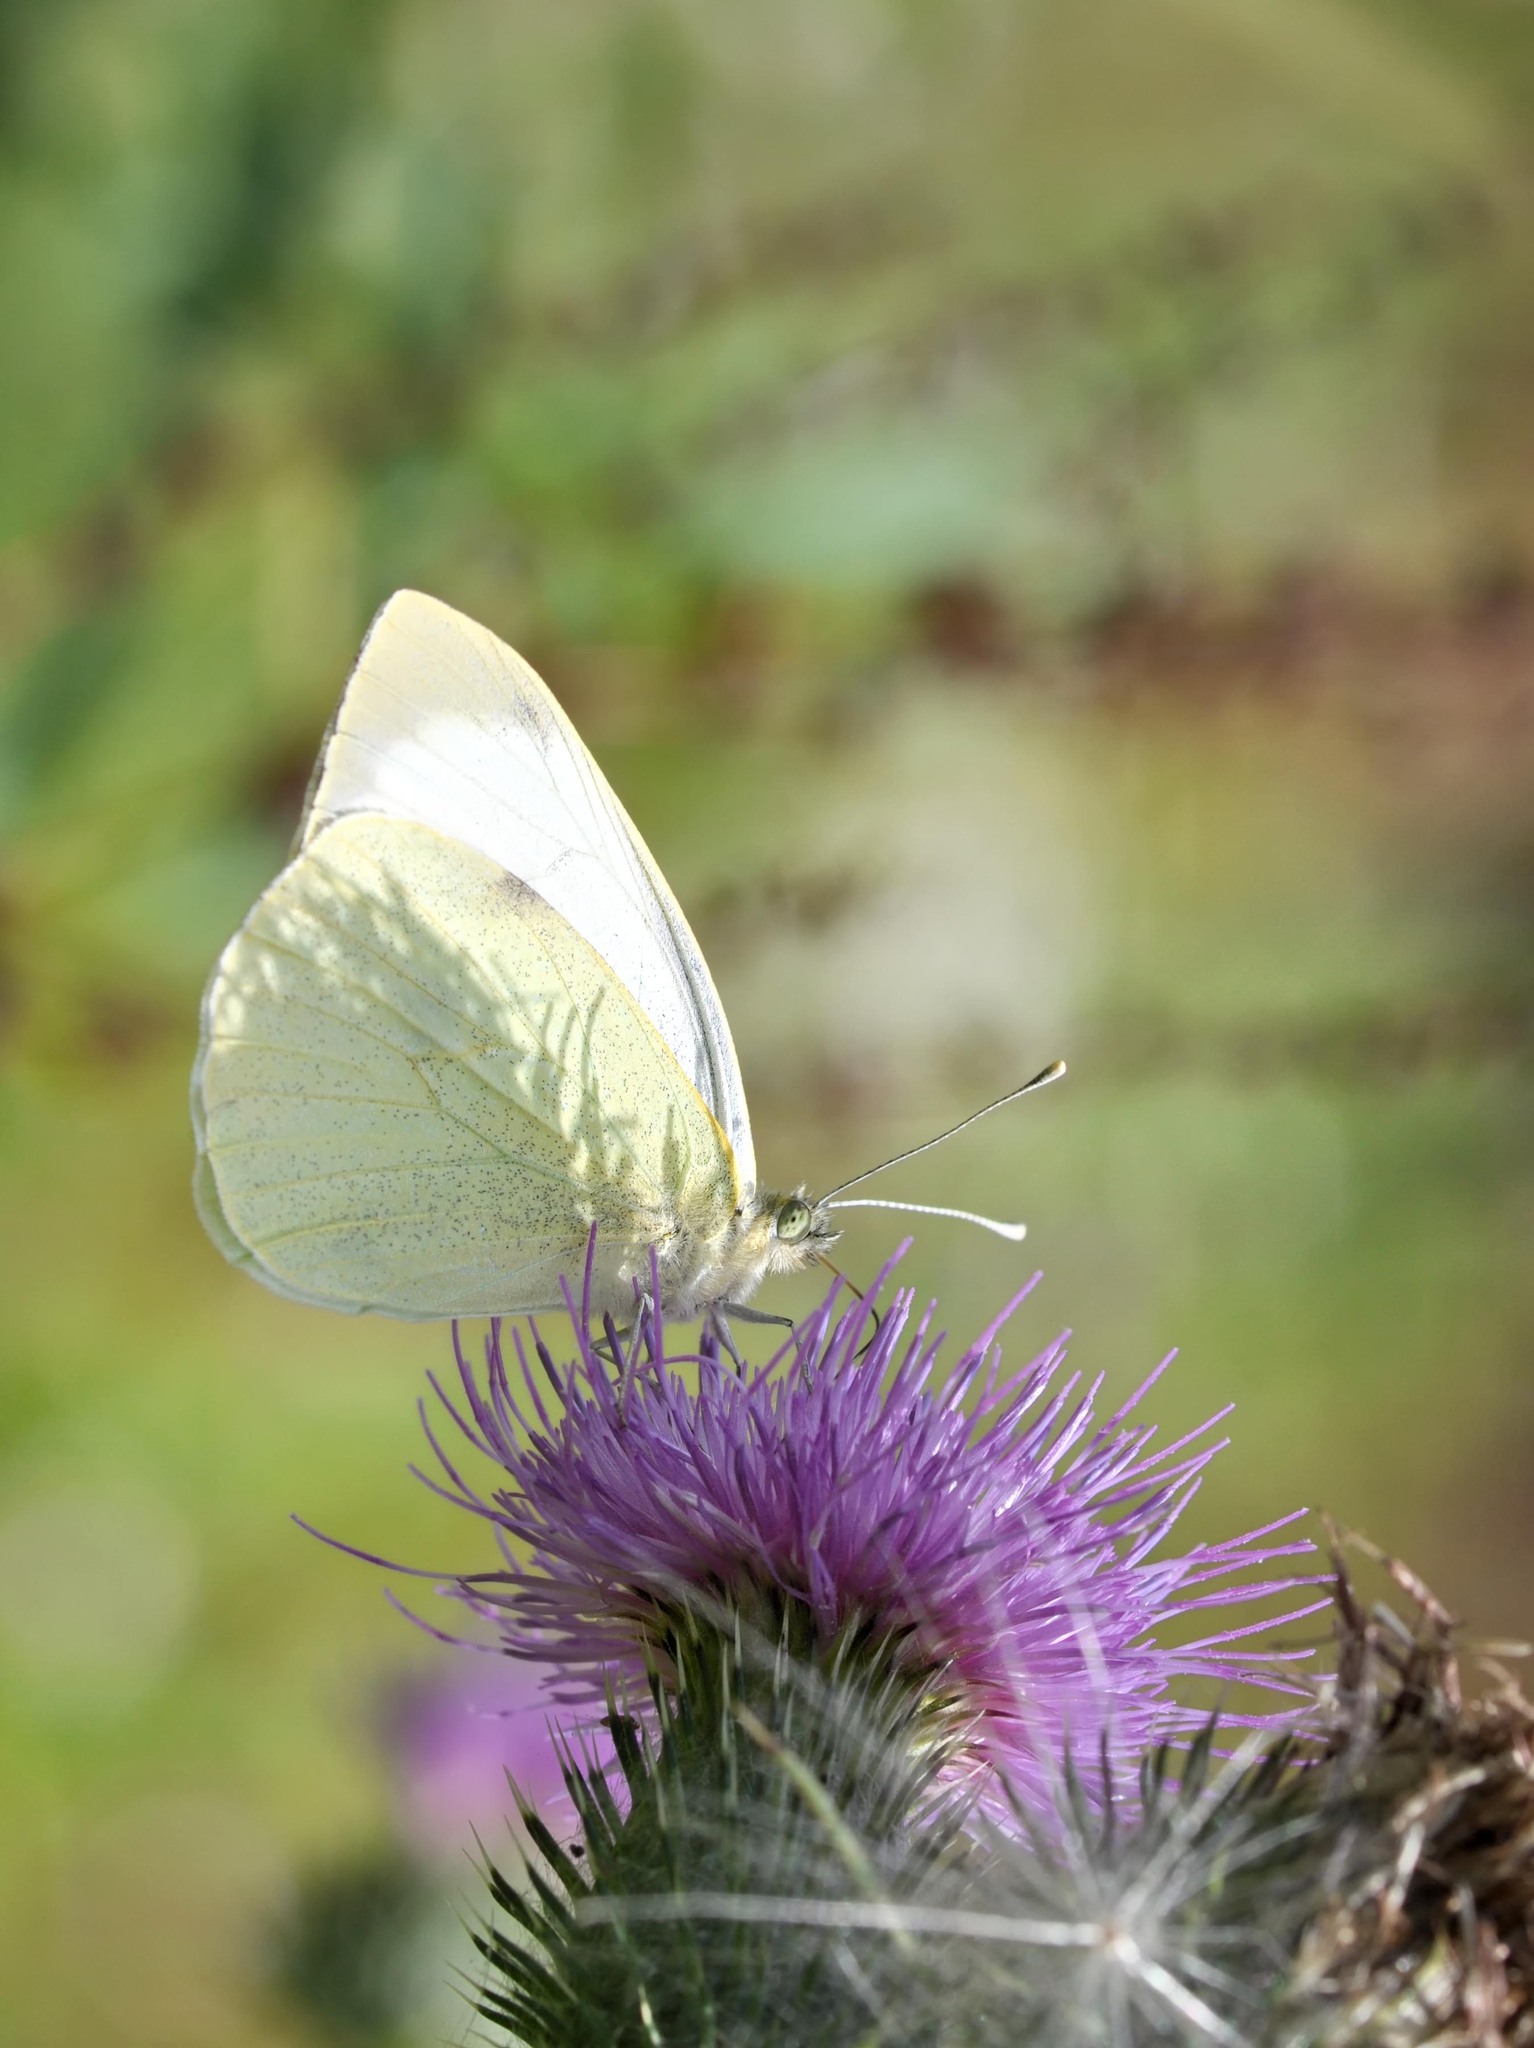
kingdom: Animalia
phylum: Arthropoda
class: Insecta
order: Lepidoptera
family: Pieridae
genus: Pieris
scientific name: Pieris brassicae
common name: Large white
